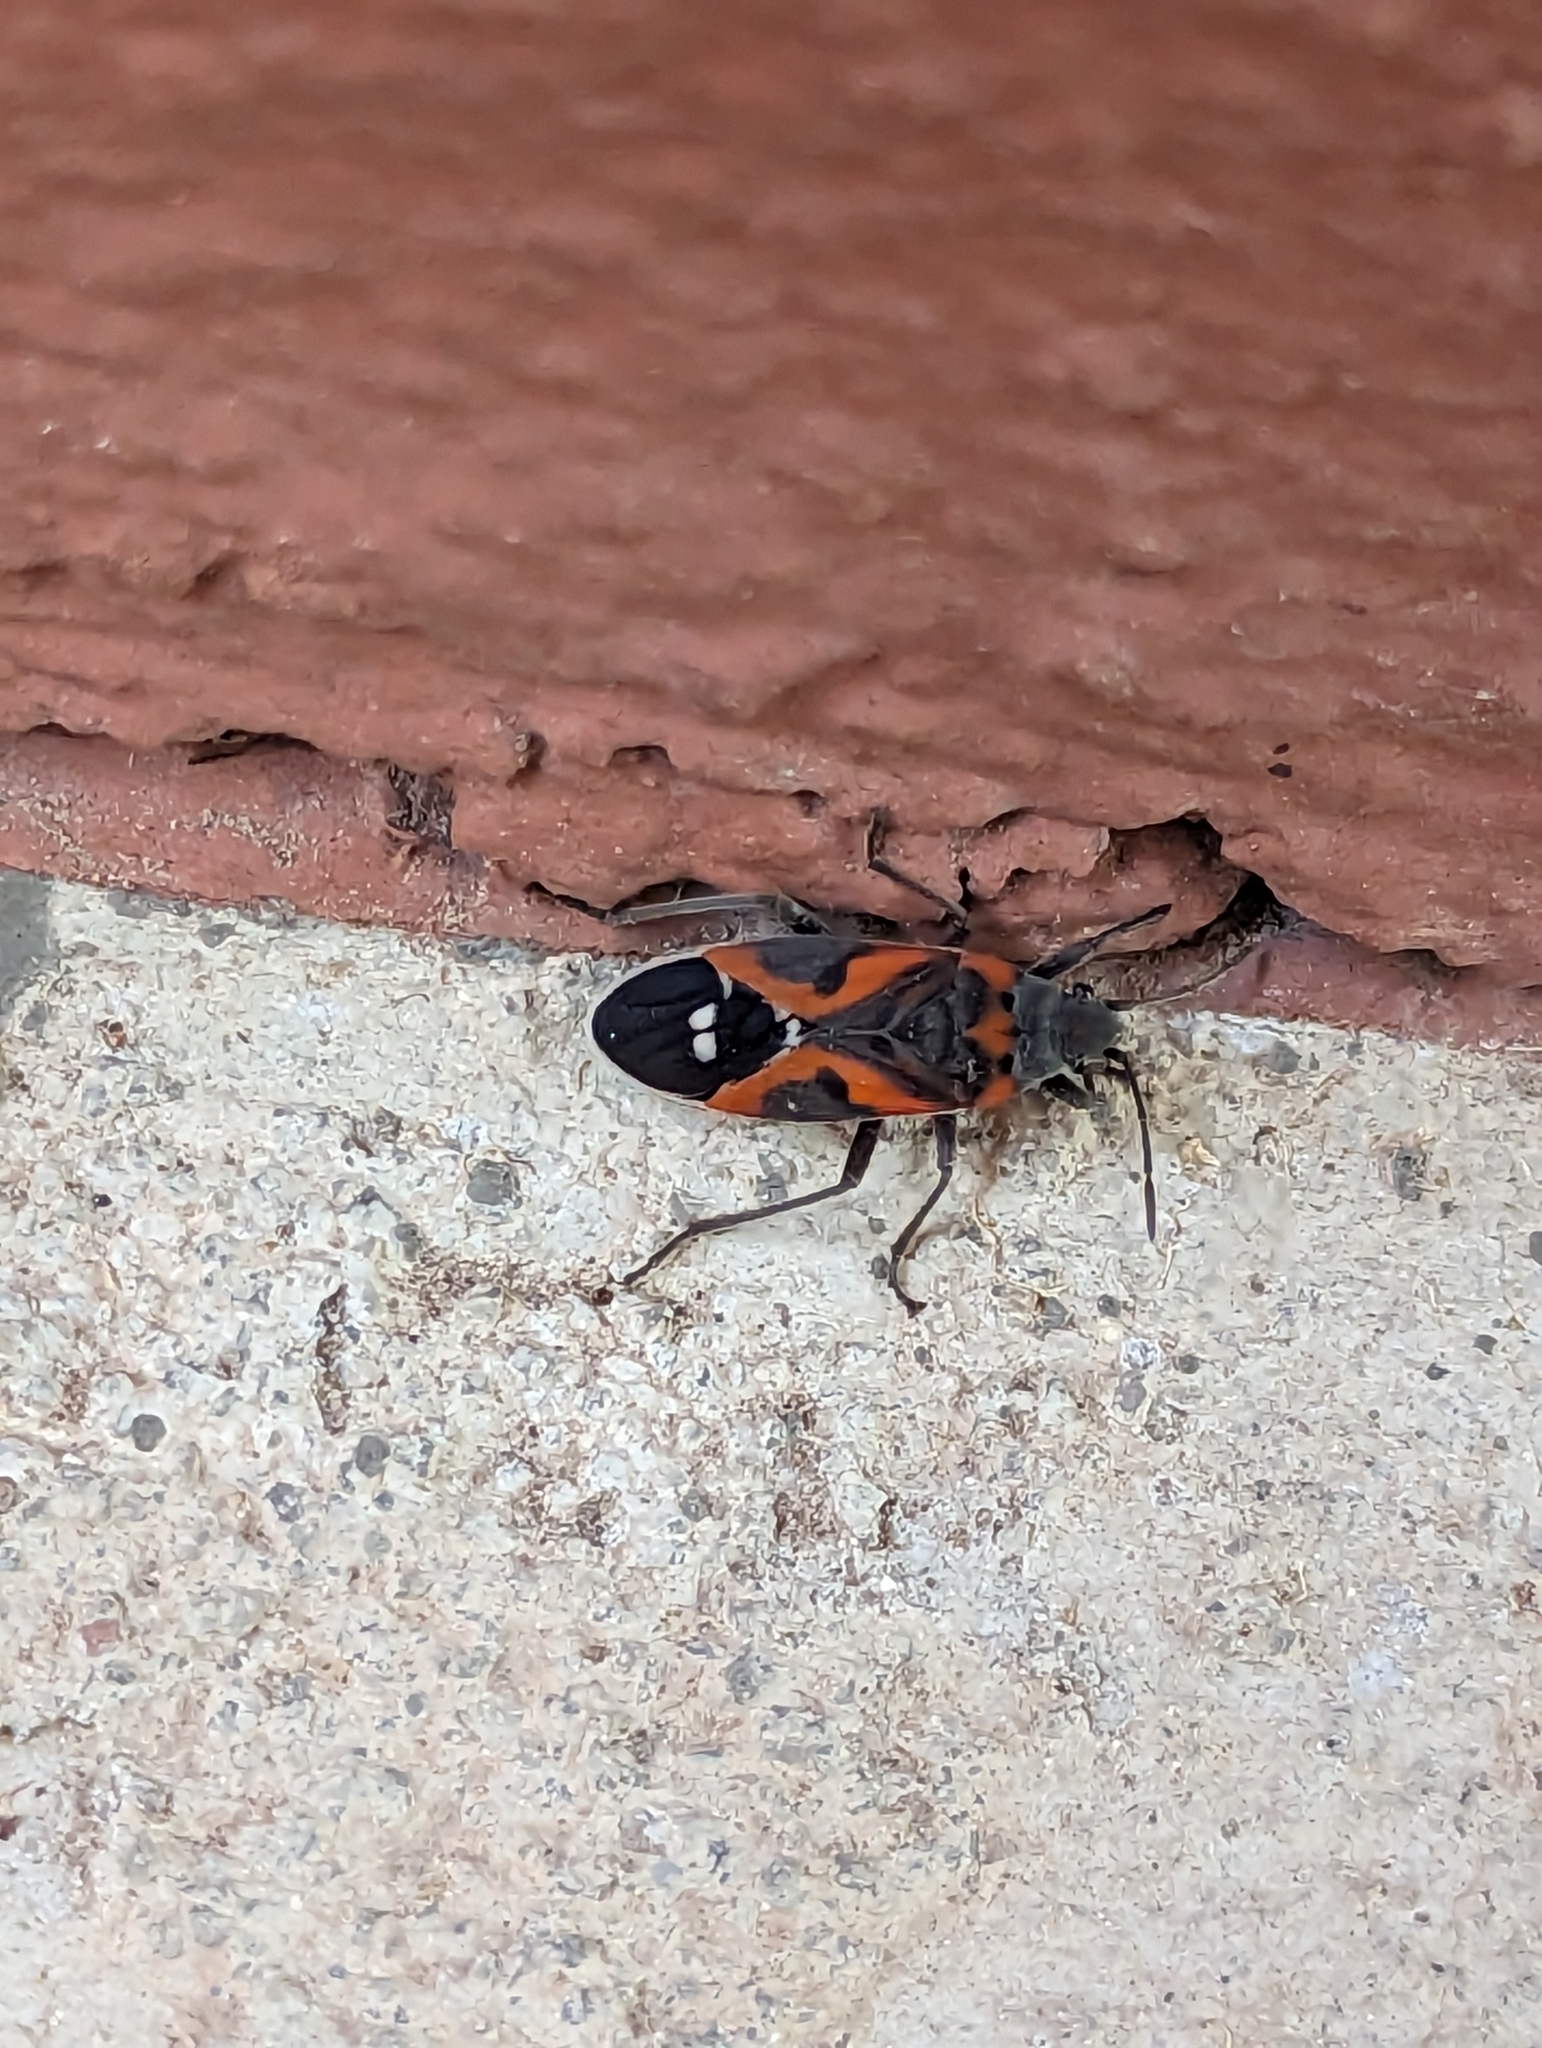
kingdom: Animalia
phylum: Arthropoda
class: Insecta
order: Hemiptera
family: Lygaeidae
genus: Lygaeus
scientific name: Lygaeus kalmii
